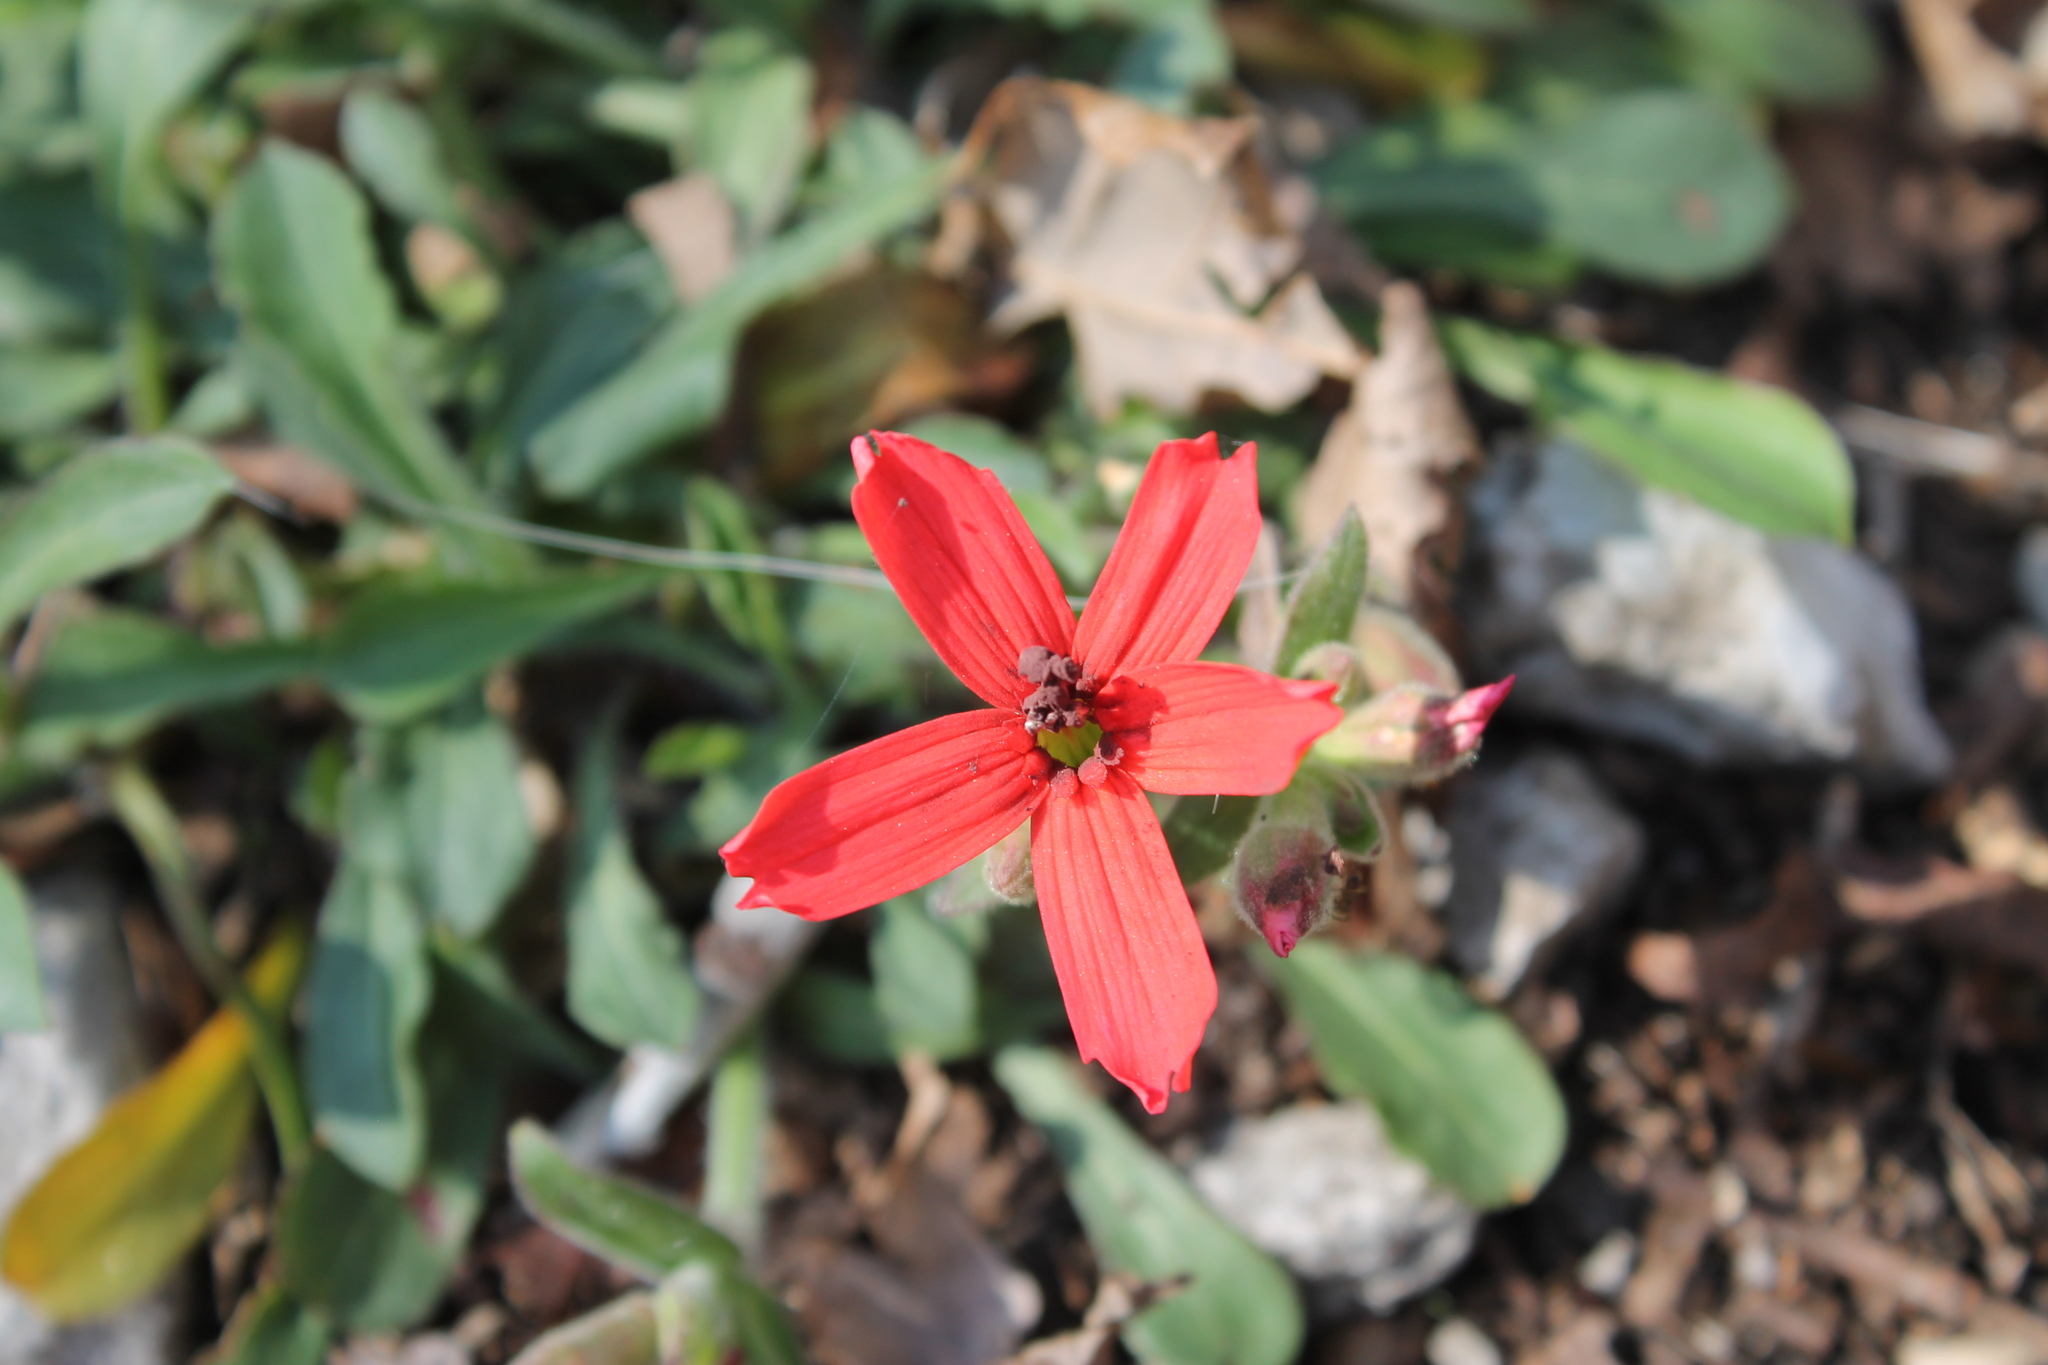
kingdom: Plantae
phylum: Tracheophyta
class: Magnoliopsida
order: Caryophyllales
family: Caryophyllaceae
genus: Silene
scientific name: Silene virginica
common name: Fire-pink
